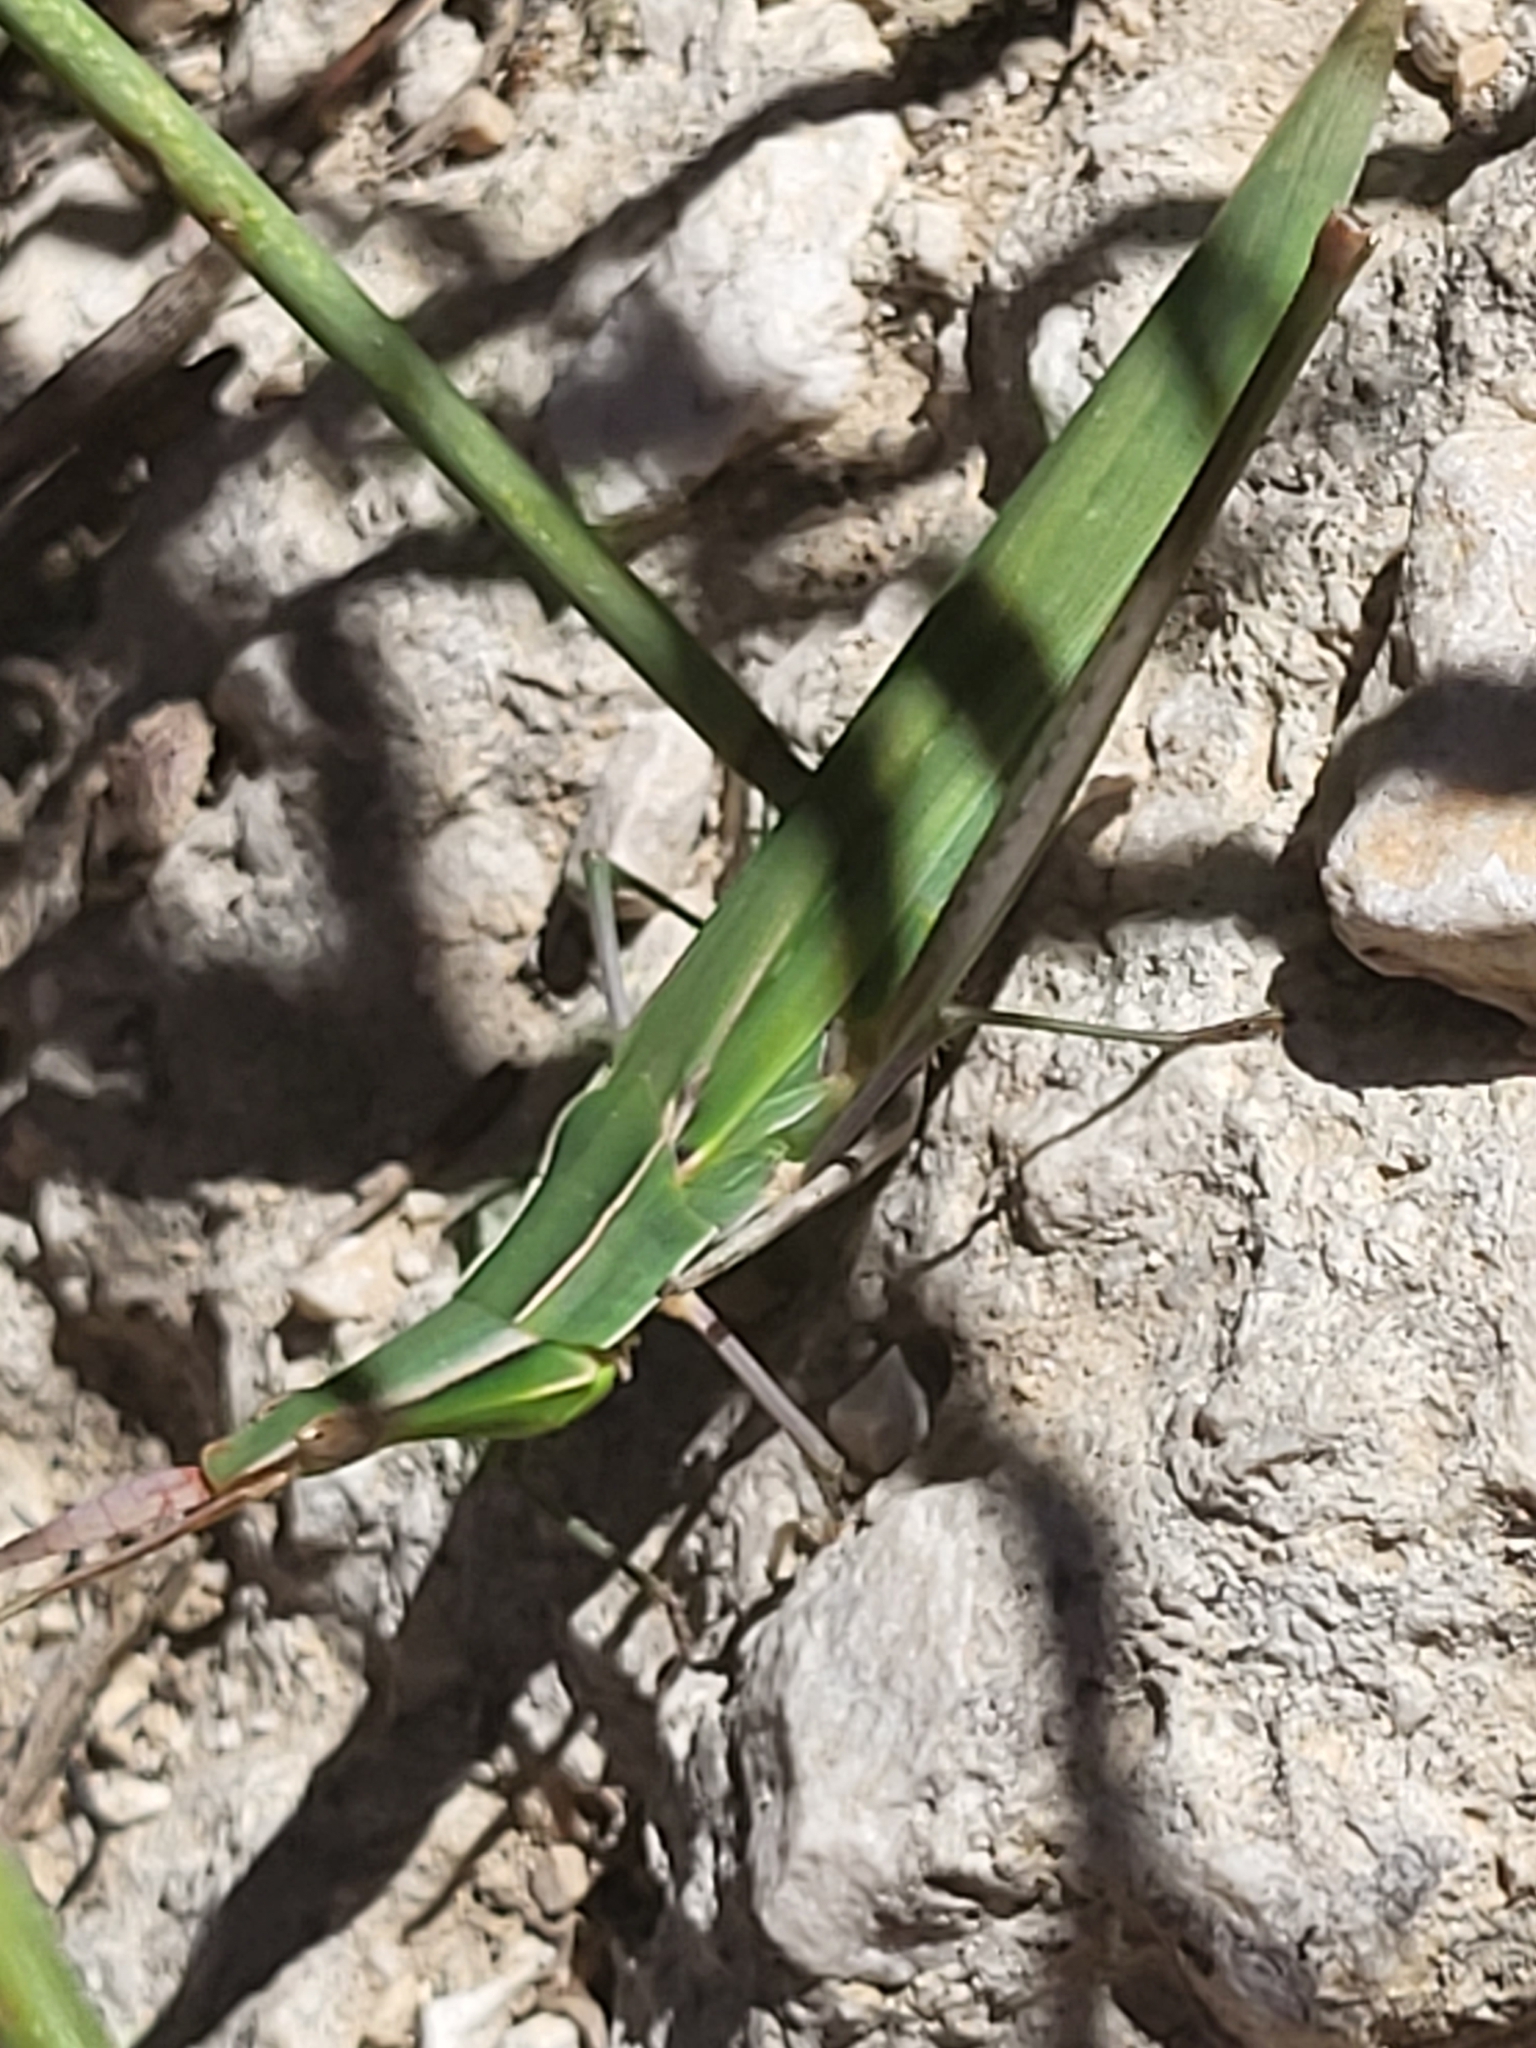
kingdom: Animalia
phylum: Arthropoda
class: Insecta
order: Orthoptera
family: Acrididae
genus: Acrida
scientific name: Acrida ungarica
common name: Common cone-headed grasshopper
